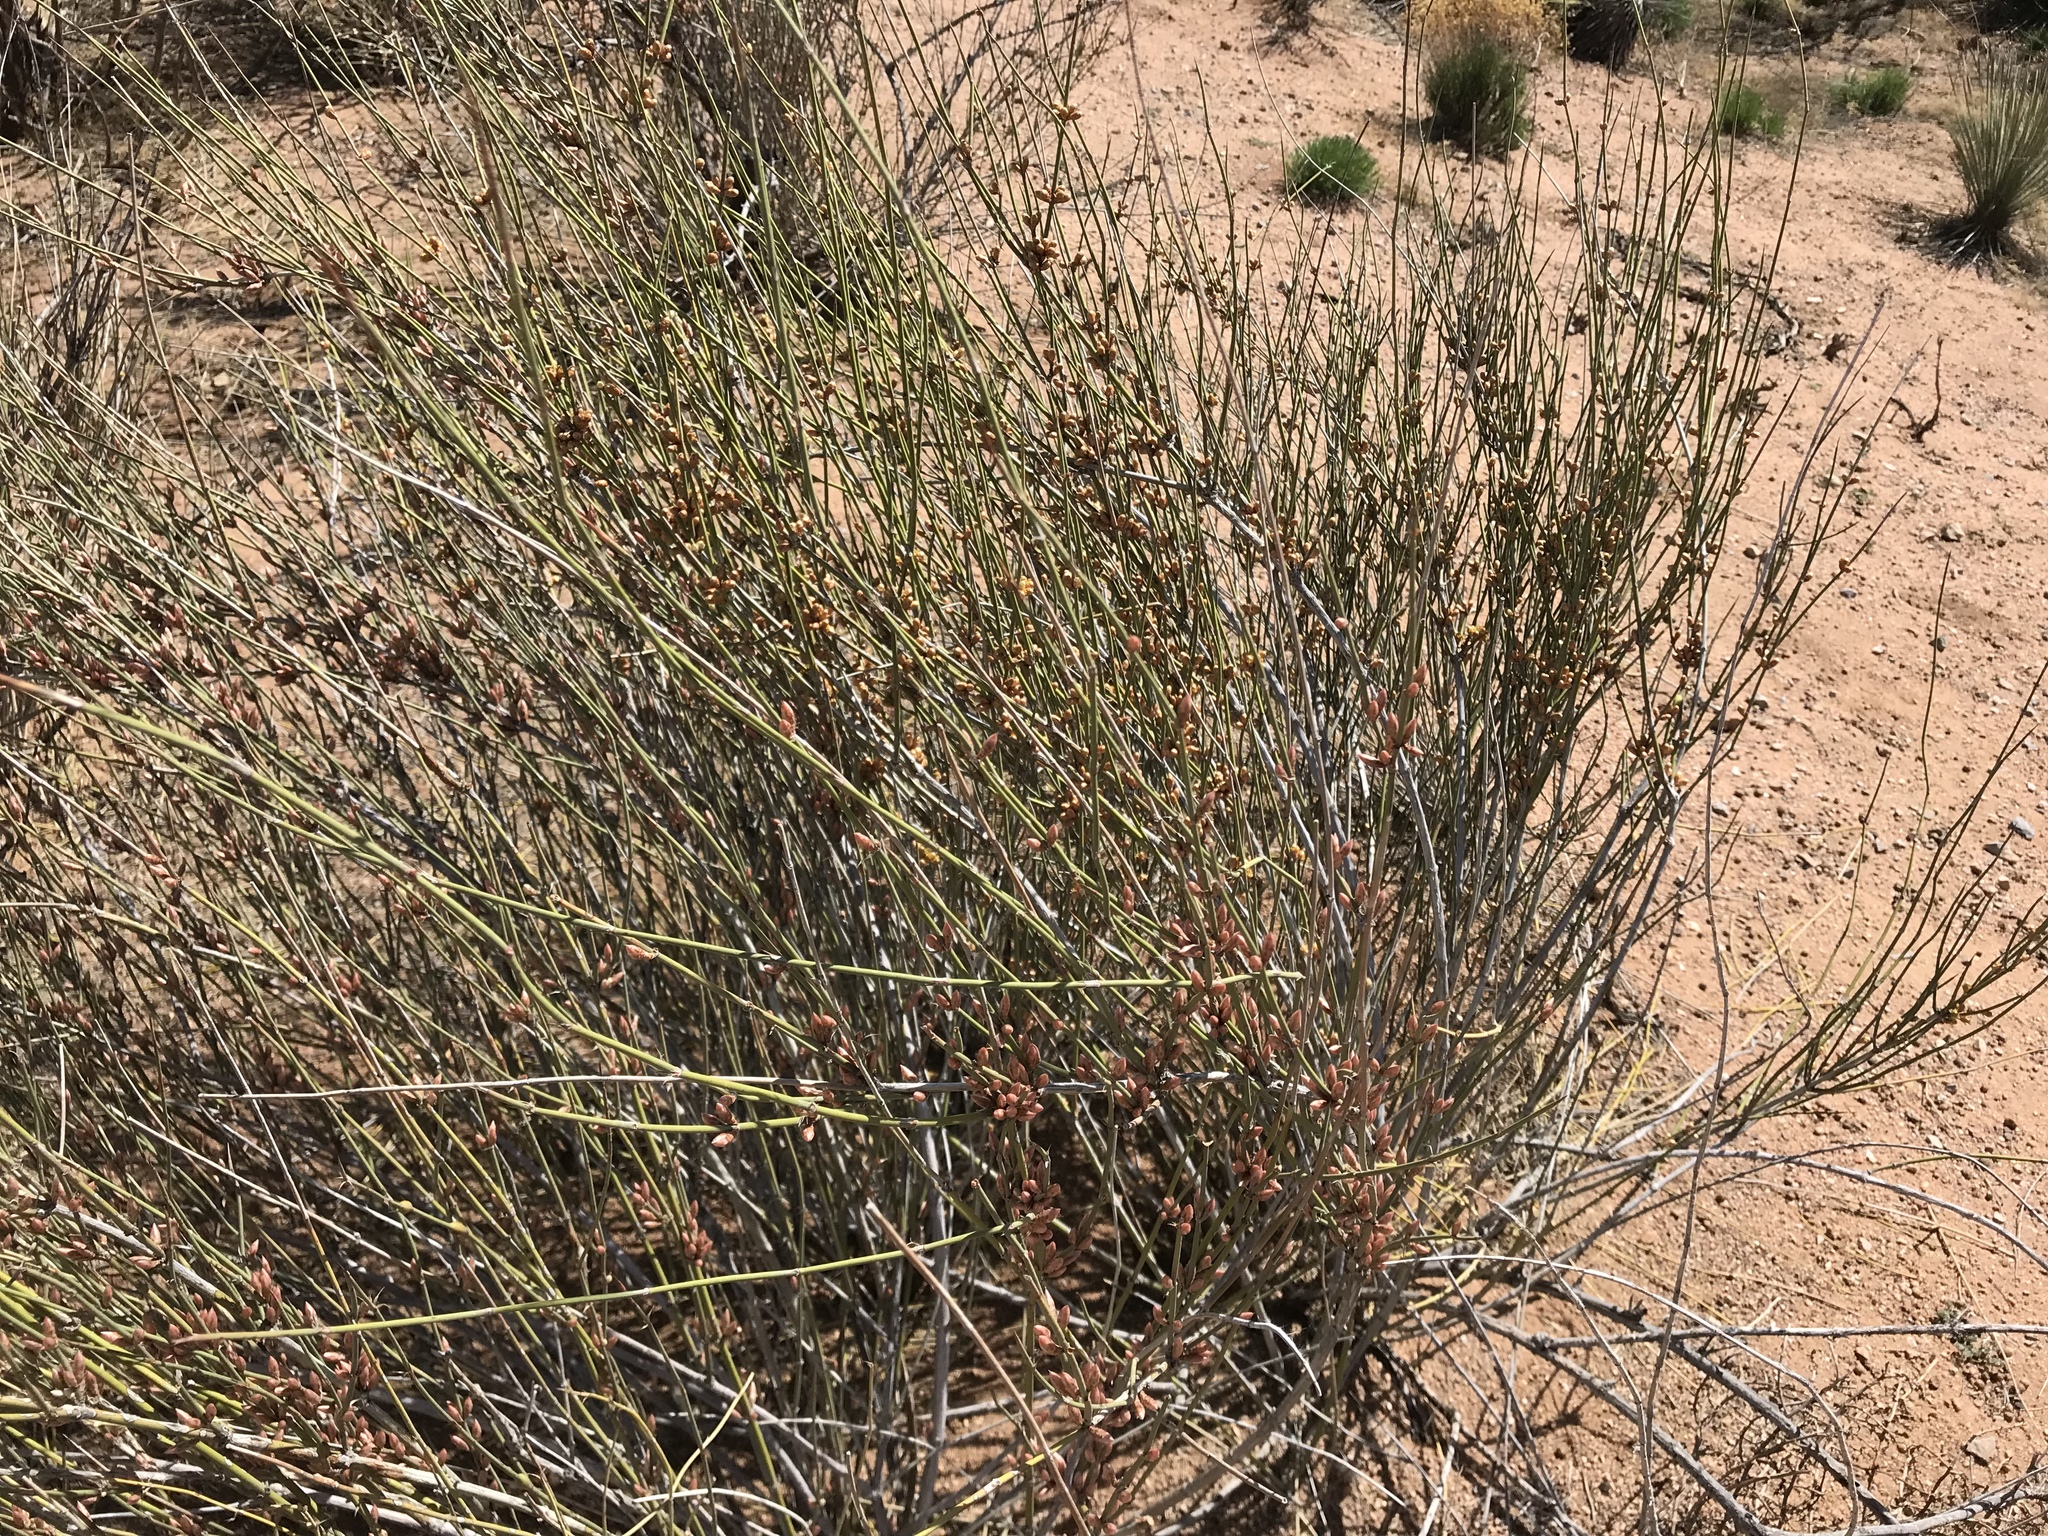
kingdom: Plantae
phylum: Tracheophyta
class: Gnetopsida
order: Ephedrales
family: Ephedraceae
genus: Ephedra
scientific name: Ephedra trifurca
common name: Mexican-tea
